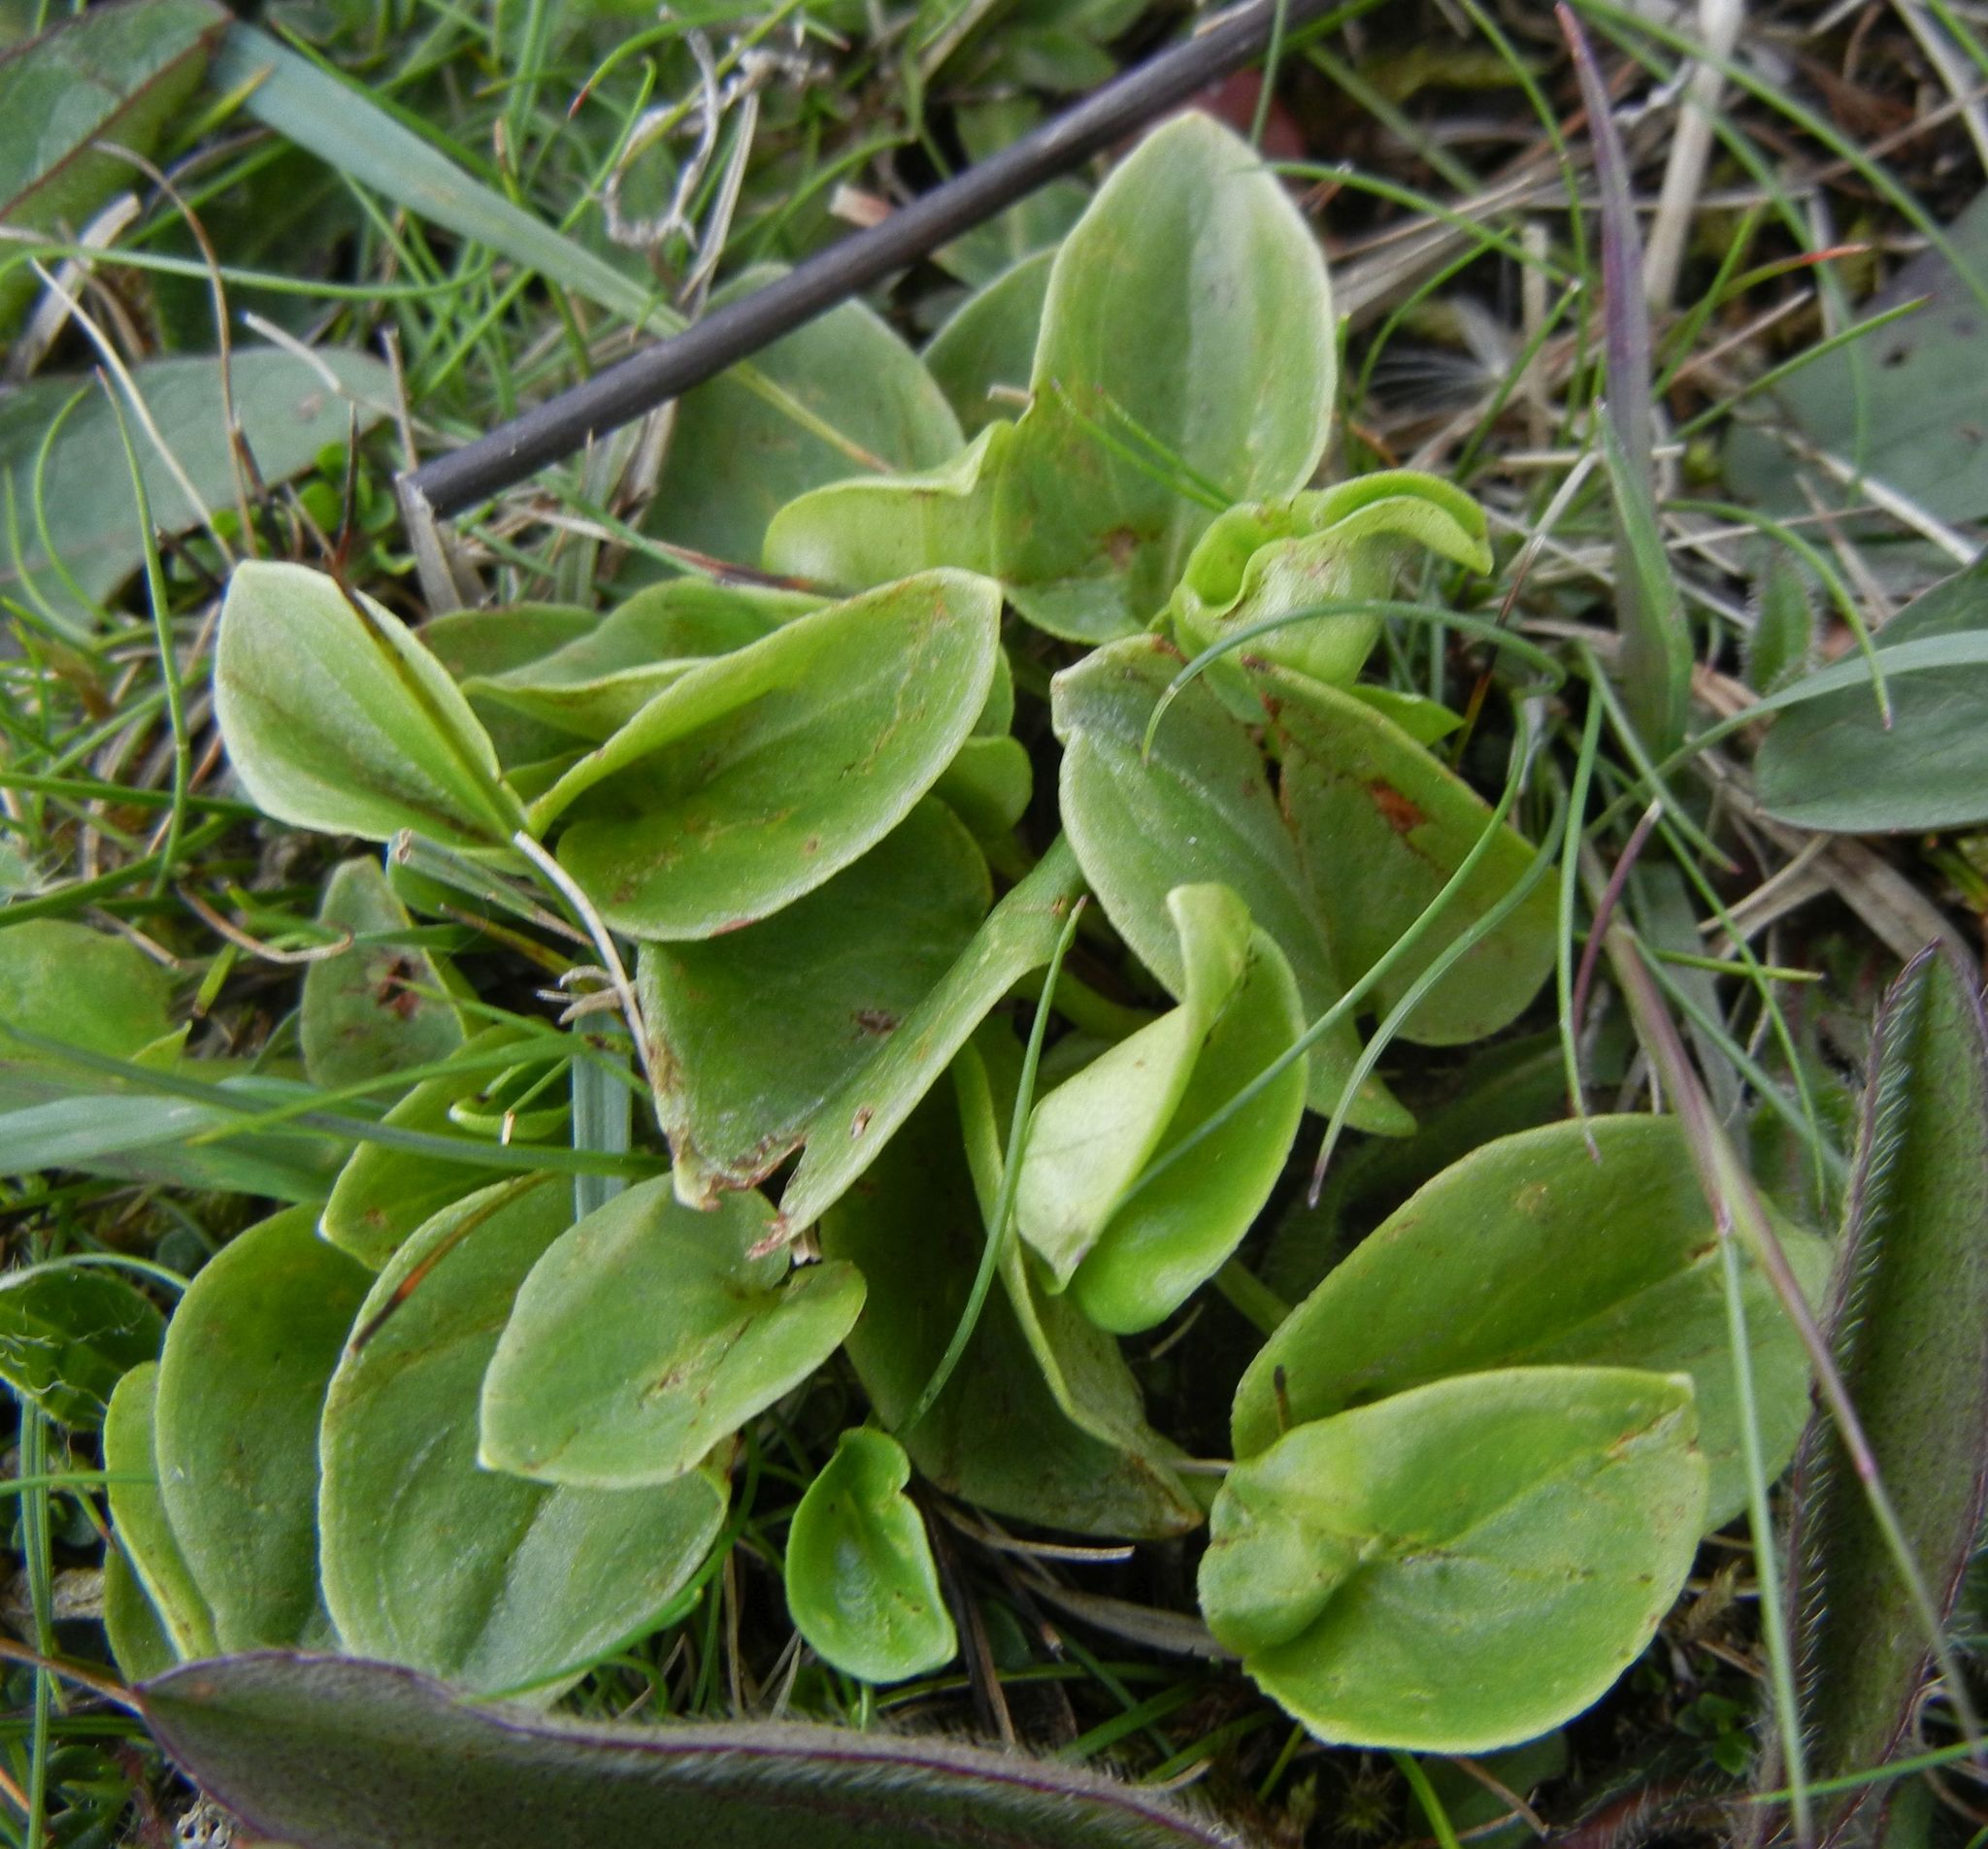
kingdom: Plantae
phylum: Tracheophyta
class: Magnoliopsida
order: Celastrales
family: Parnassiaceae
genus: Parnassia
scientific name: Parnassia palustris
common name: Grass-of-parnassus
